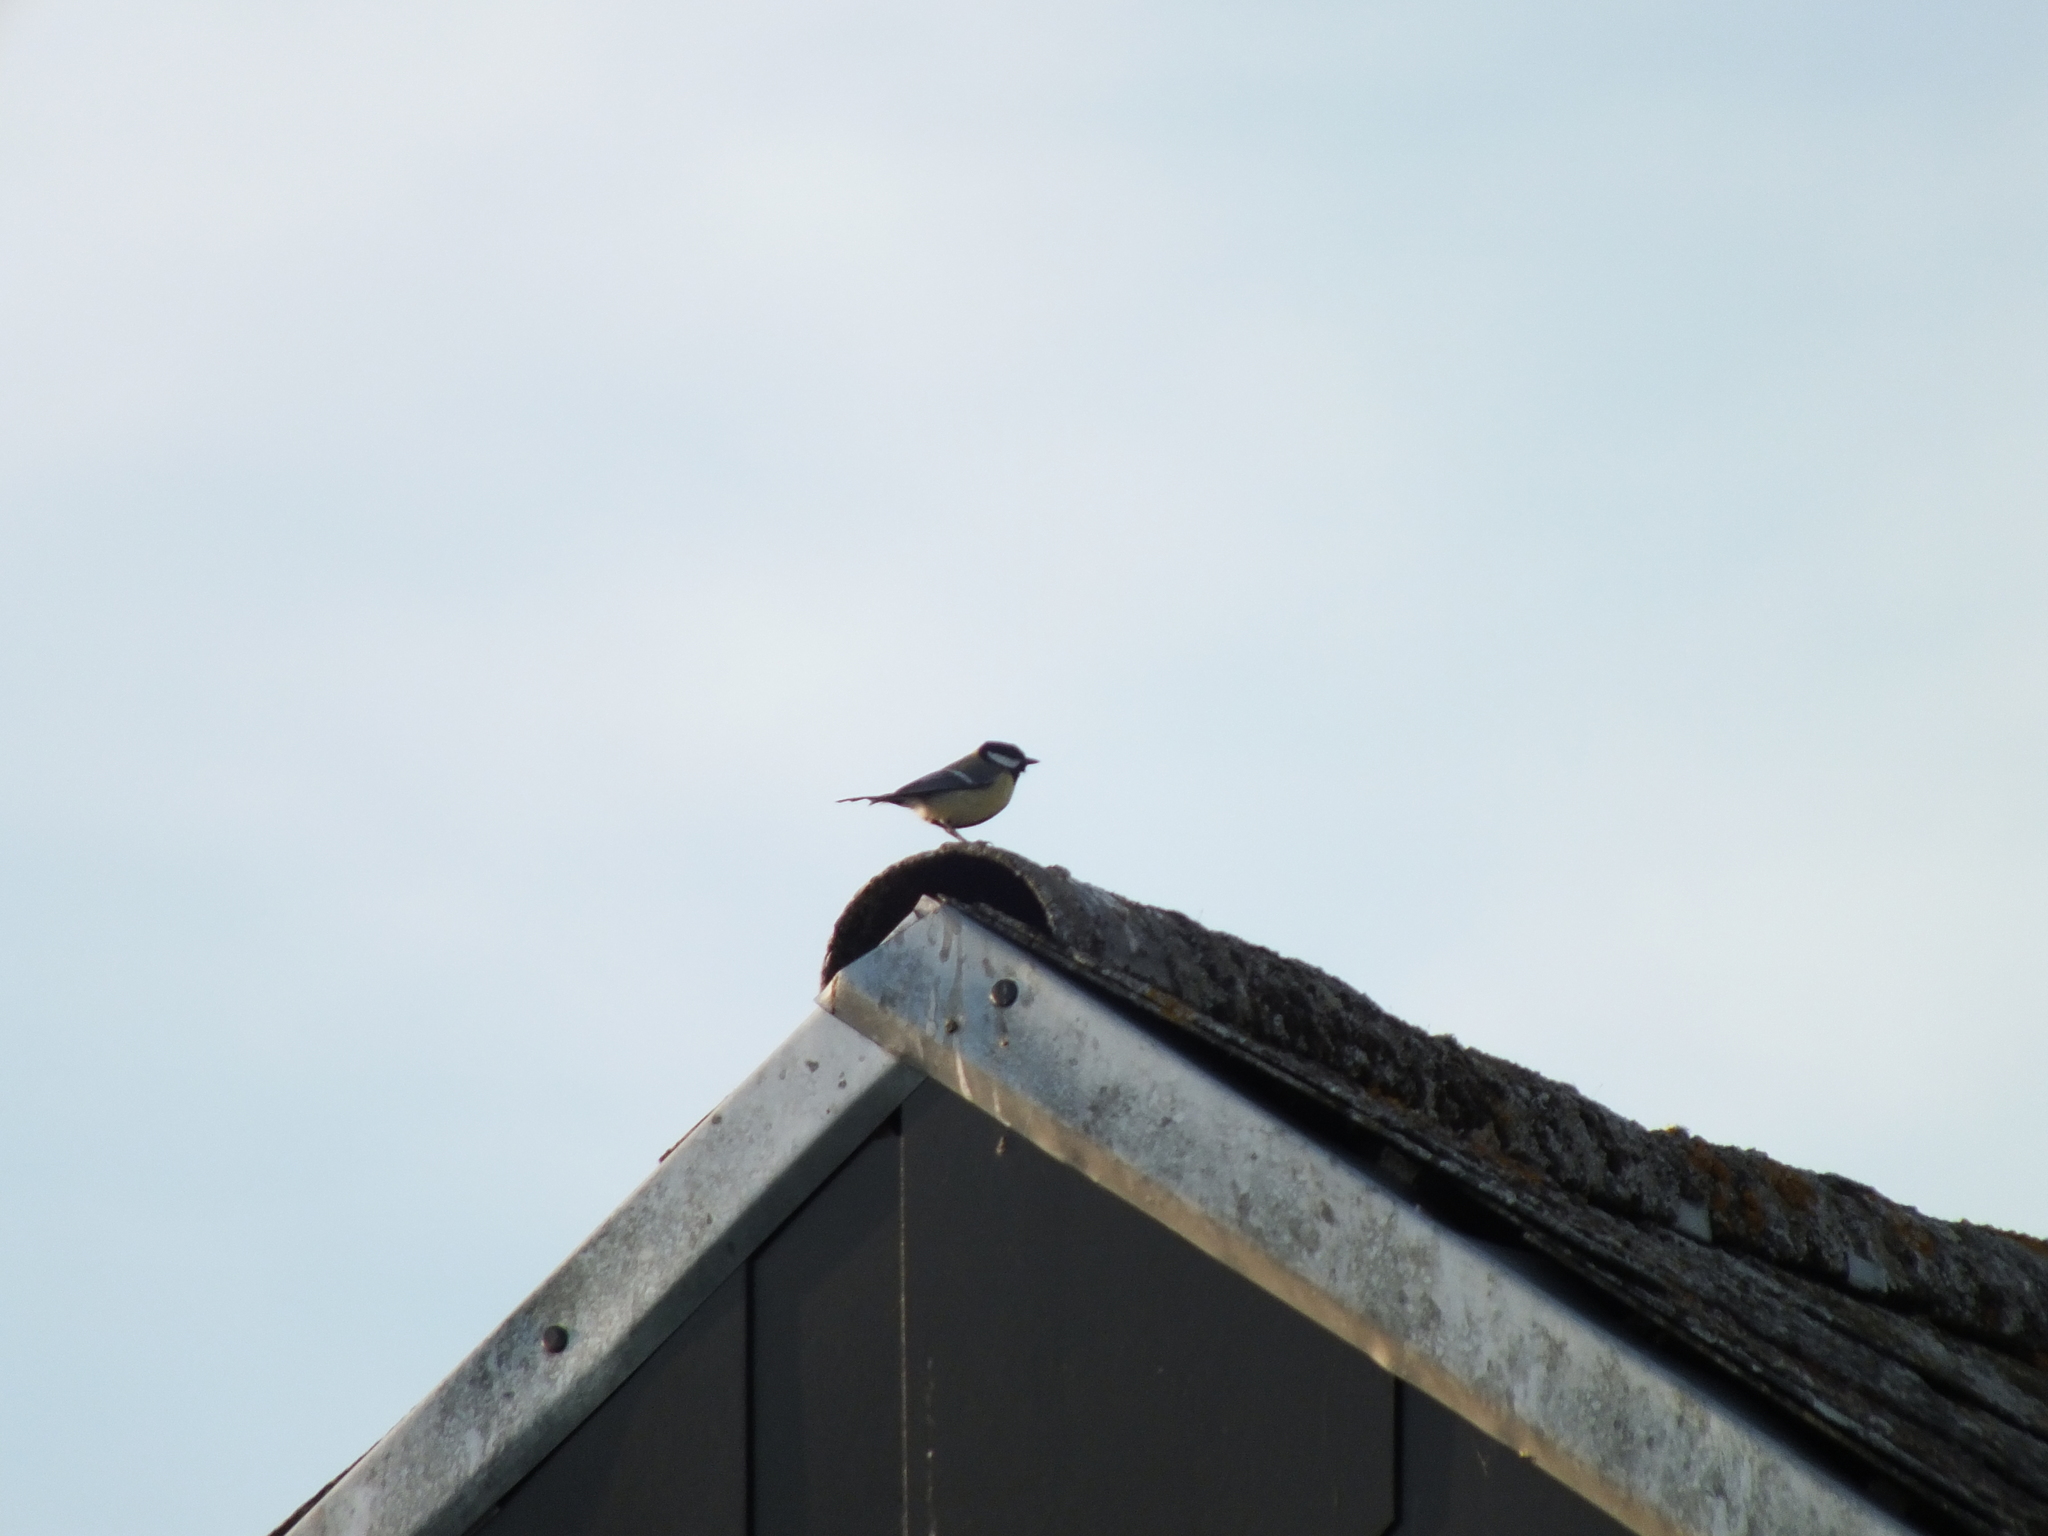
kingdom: Animalia
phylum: Chordata
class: Aves
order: Passeriformes
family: Paridae
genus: Parus
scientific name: Parus major
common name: Great tit
